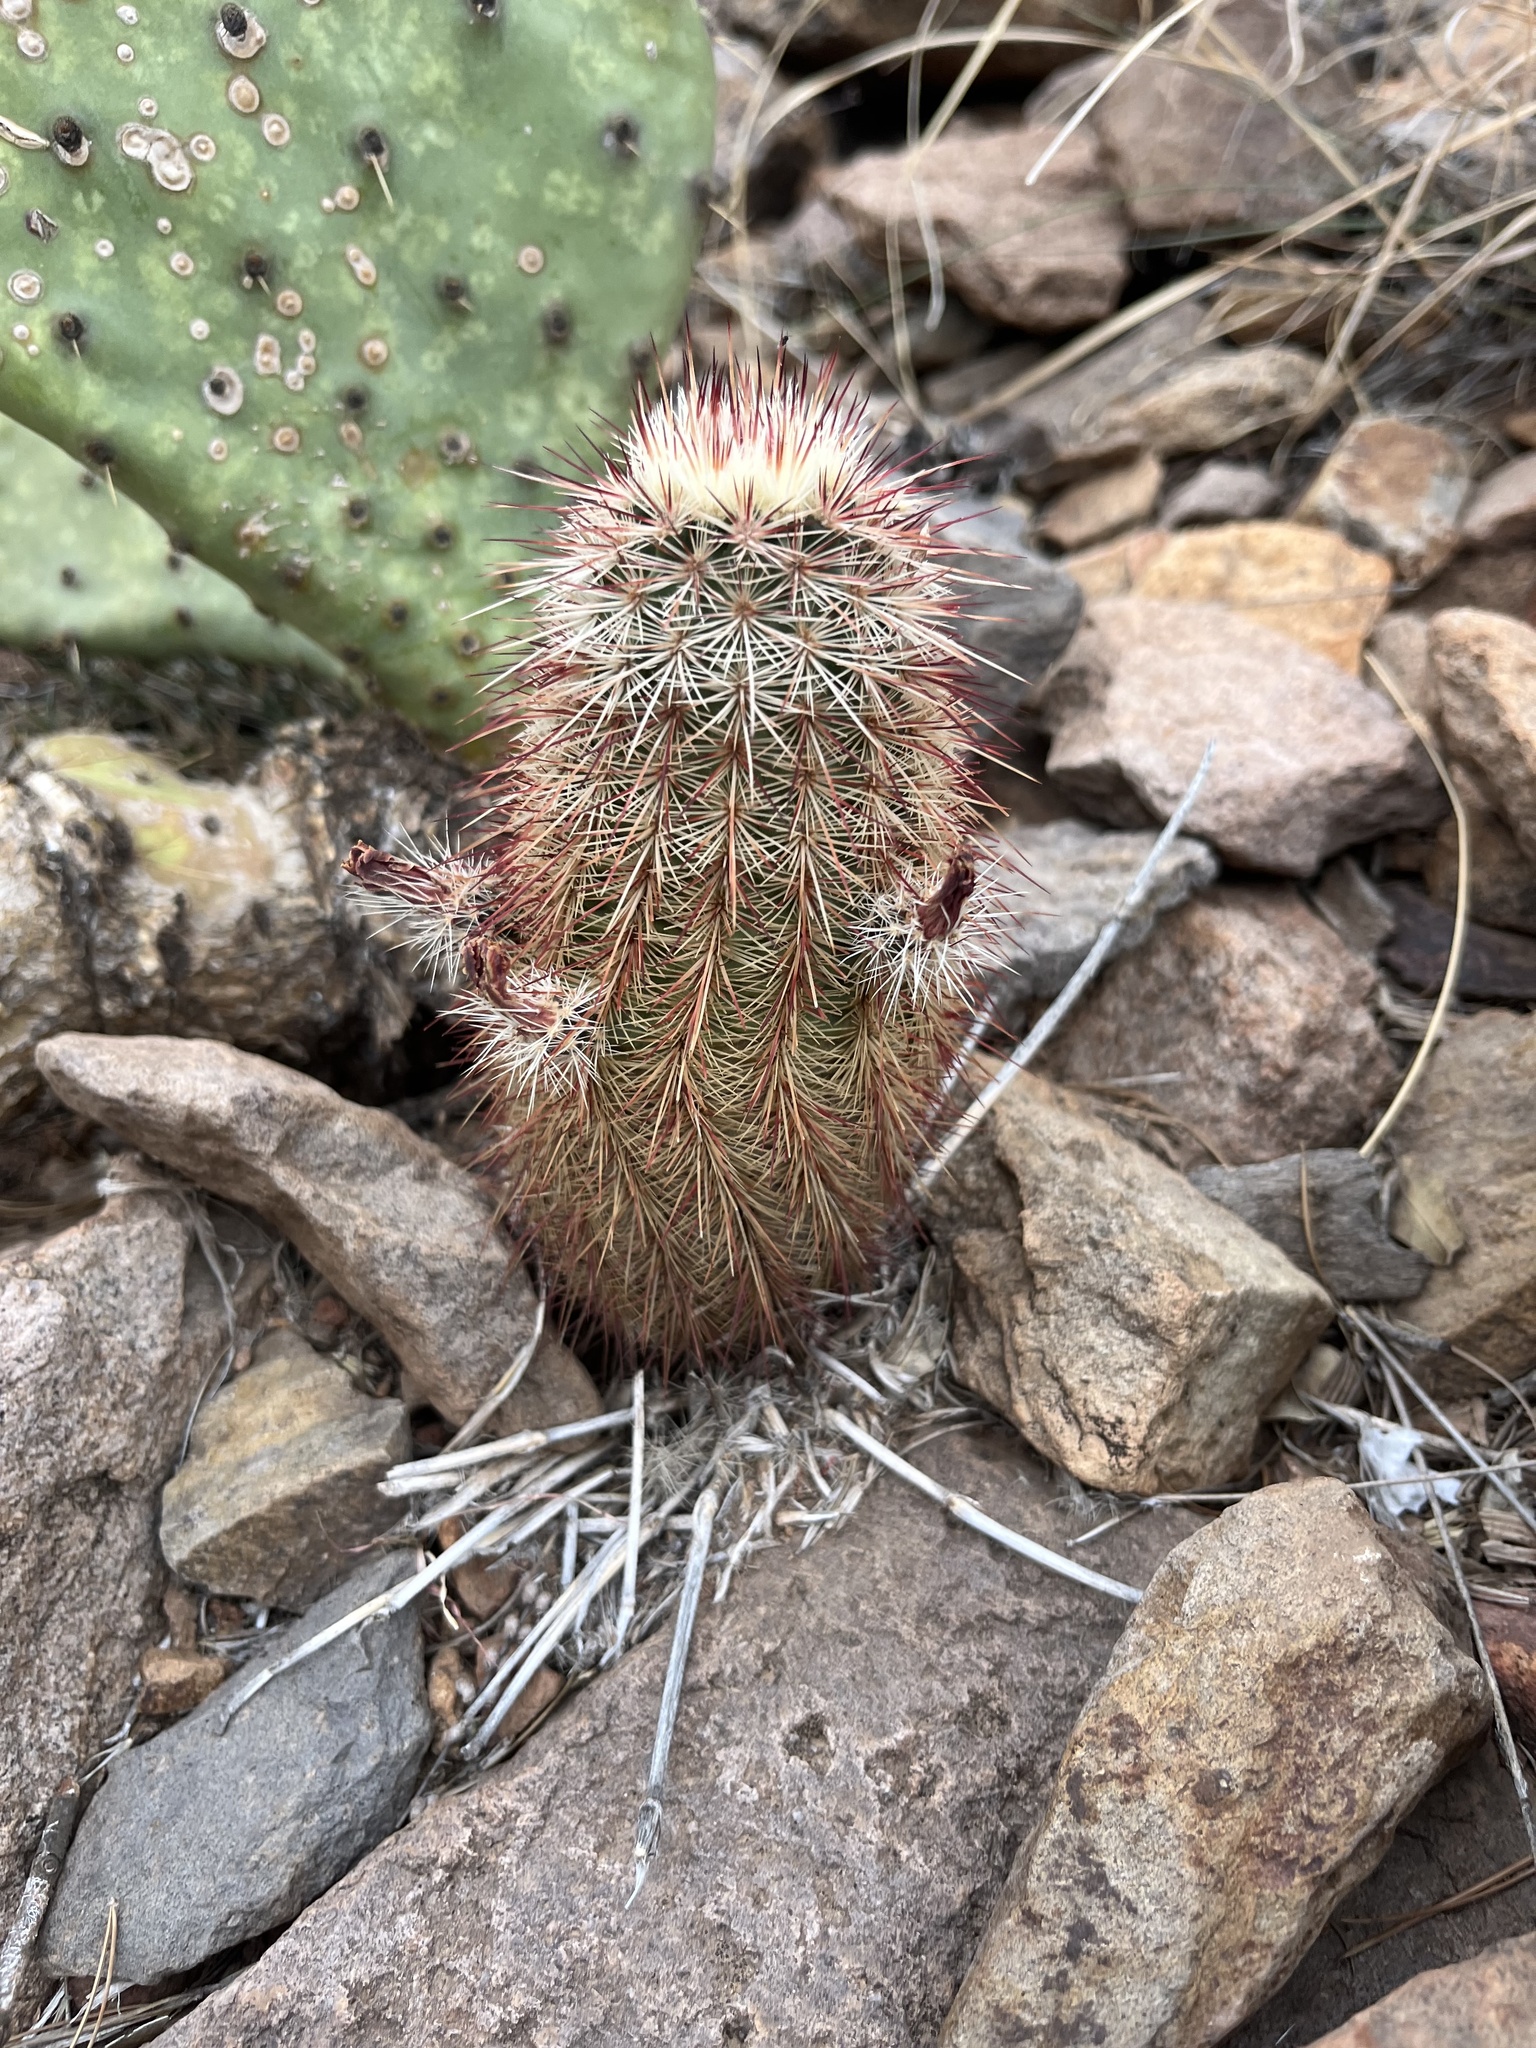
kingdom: Plantae
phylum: Tracheophyta
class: Magnoliopsida
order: Caryophyllales
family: Cactaceae
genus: Echinocereus
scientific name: Echinocereus russanthus
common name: Brownspine hedgehog cactus
